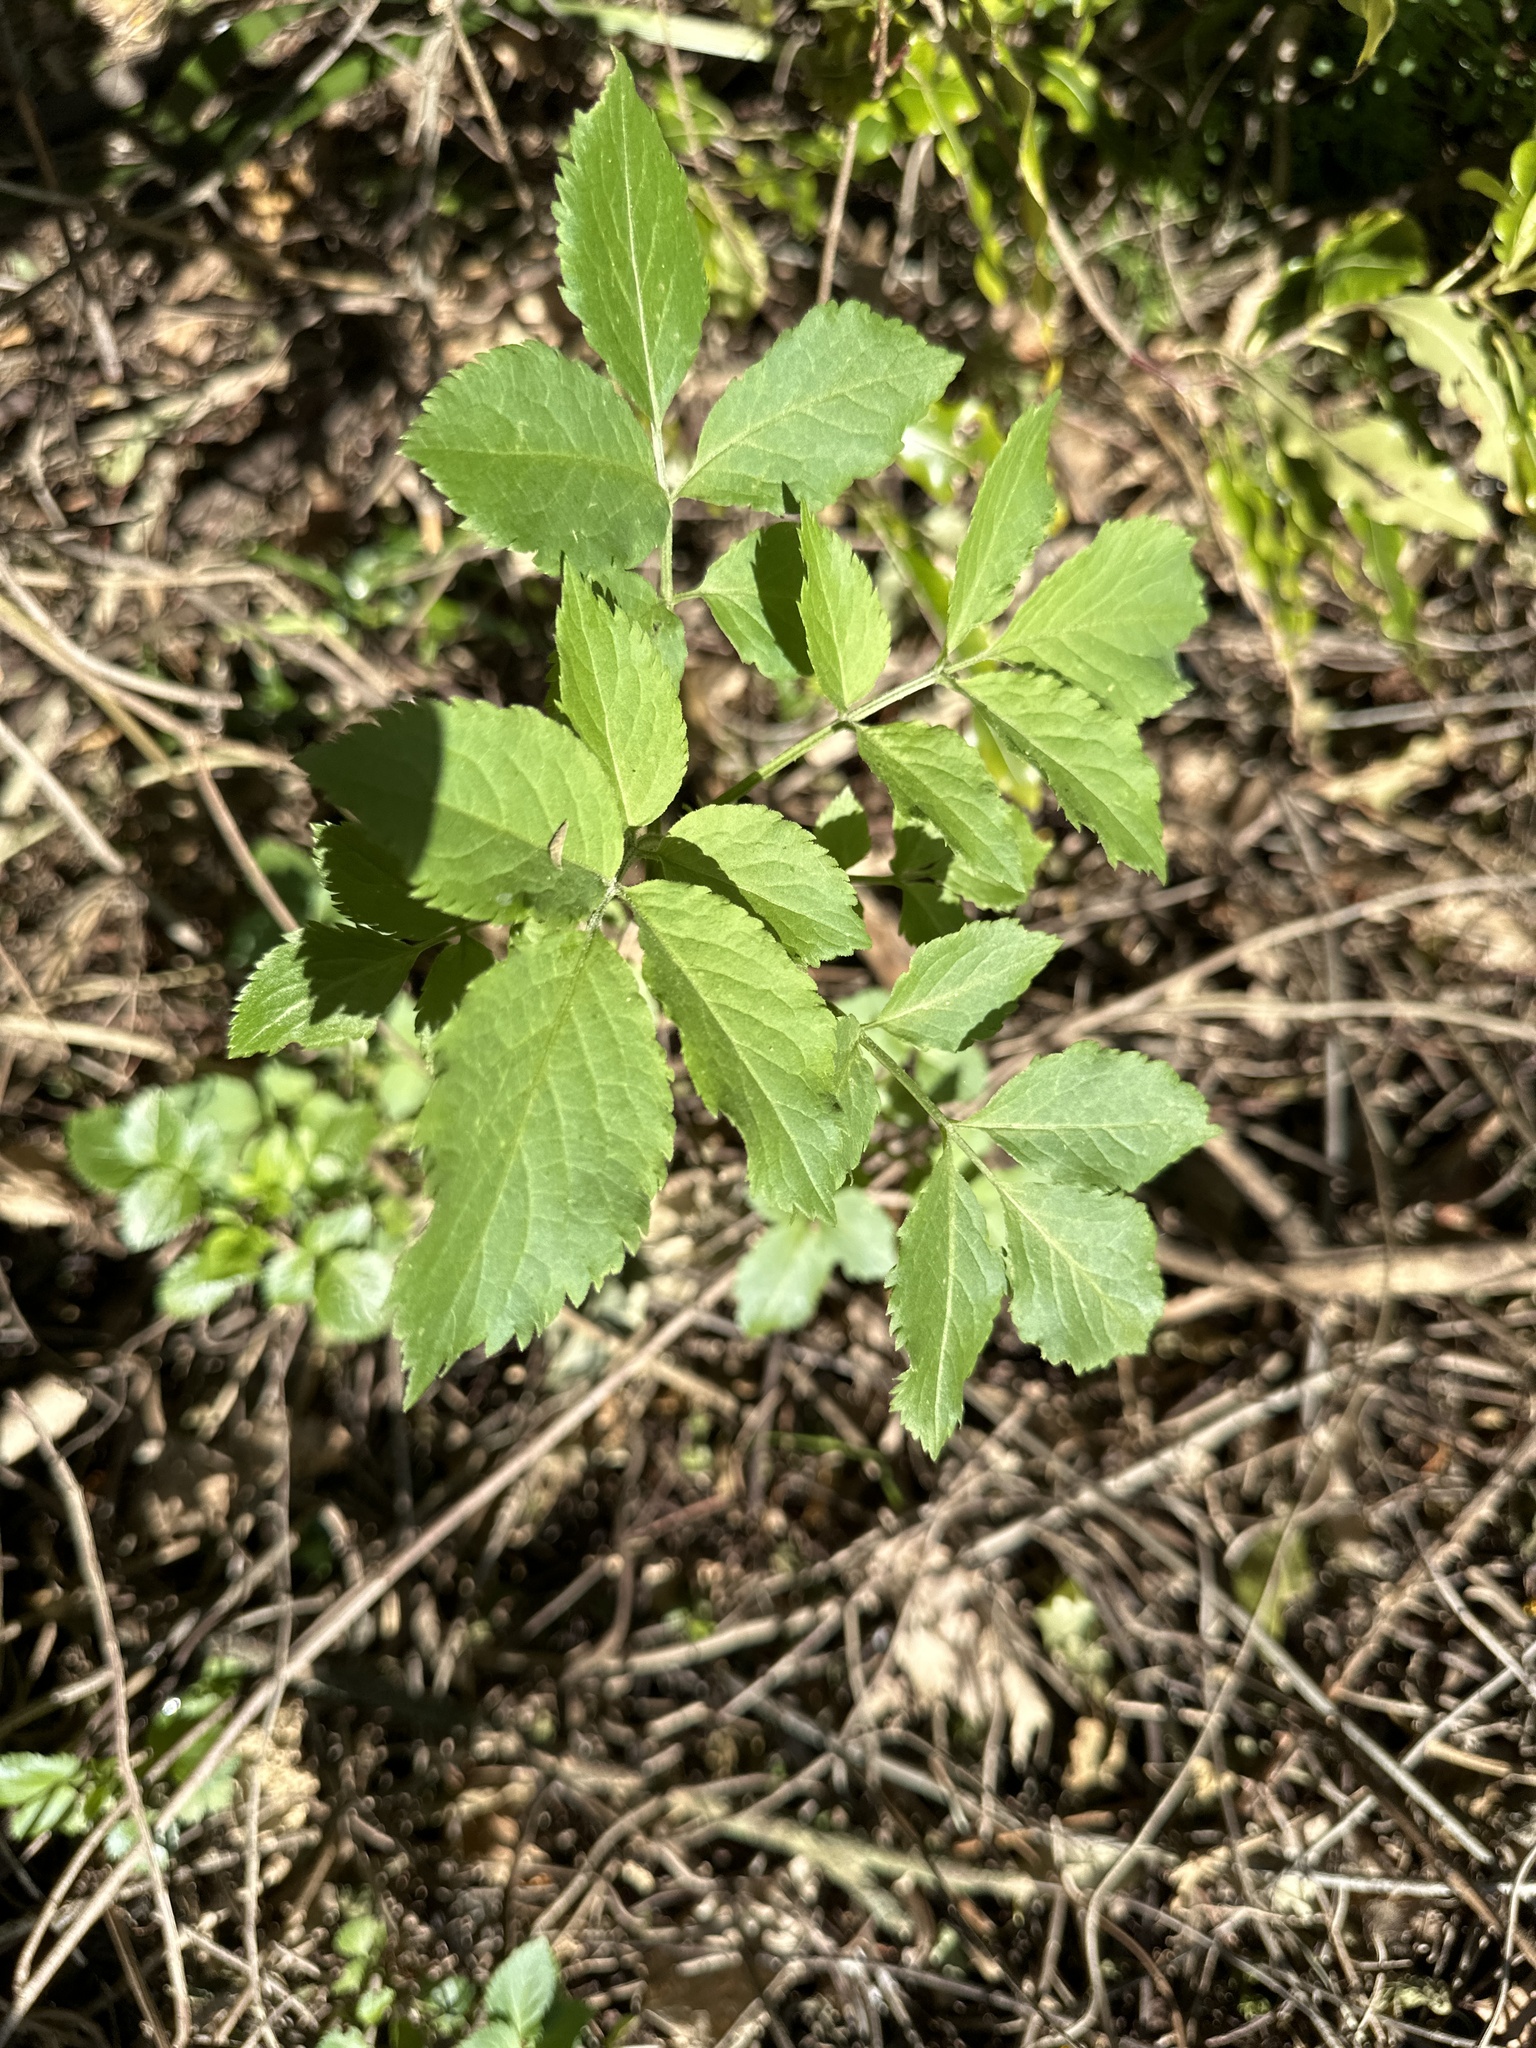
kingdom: Plantae
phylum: Tracheophyta
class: Magnoliopsida
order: Dipsacales
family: Viburnaceae
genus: Sambucus
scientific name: Sambucus nigra
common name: Elder
